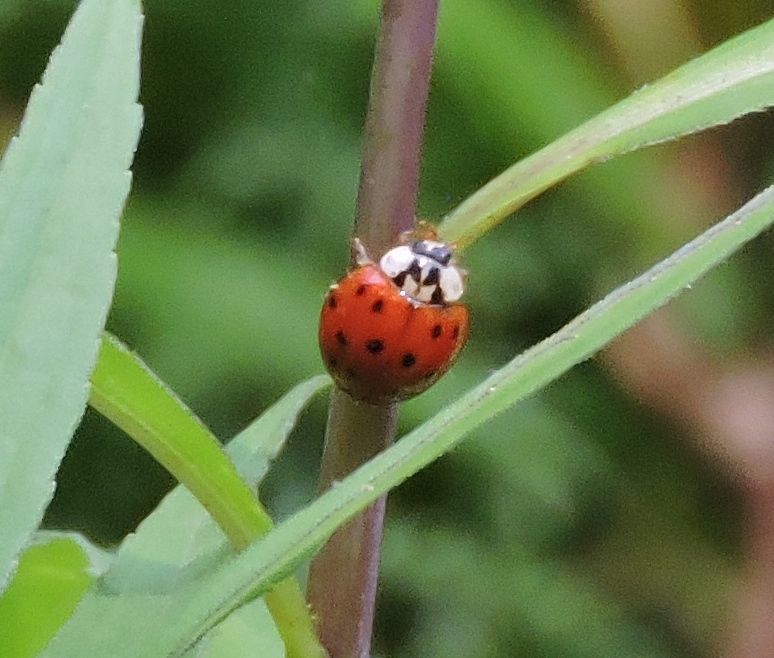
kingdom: Animalia
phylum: Arthropoda
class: Insecta
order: Coleoptera
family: Coccinellidae
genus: Harmonia
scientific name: Harmonia axyridis
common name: Harlequin ladybird
